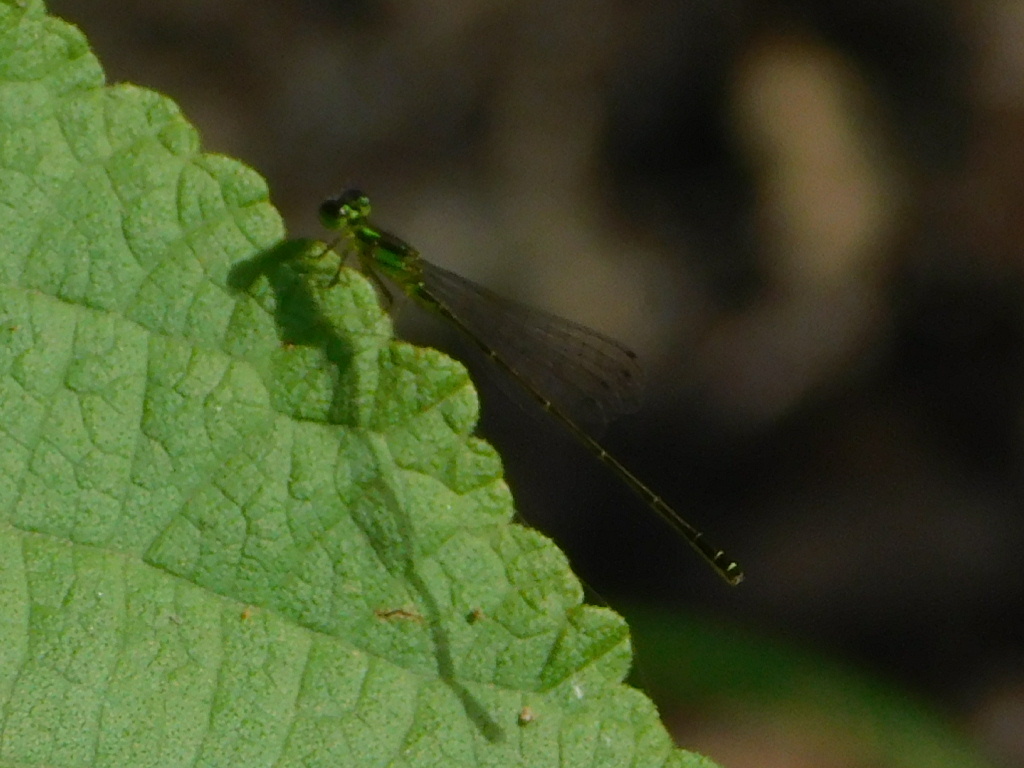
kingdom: Animalia
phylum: Arthropoda
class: Insecta
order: Odonata
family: Coenagrionidae
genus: Ischnura
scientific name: Ischnura posita
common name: Fragile forktail
